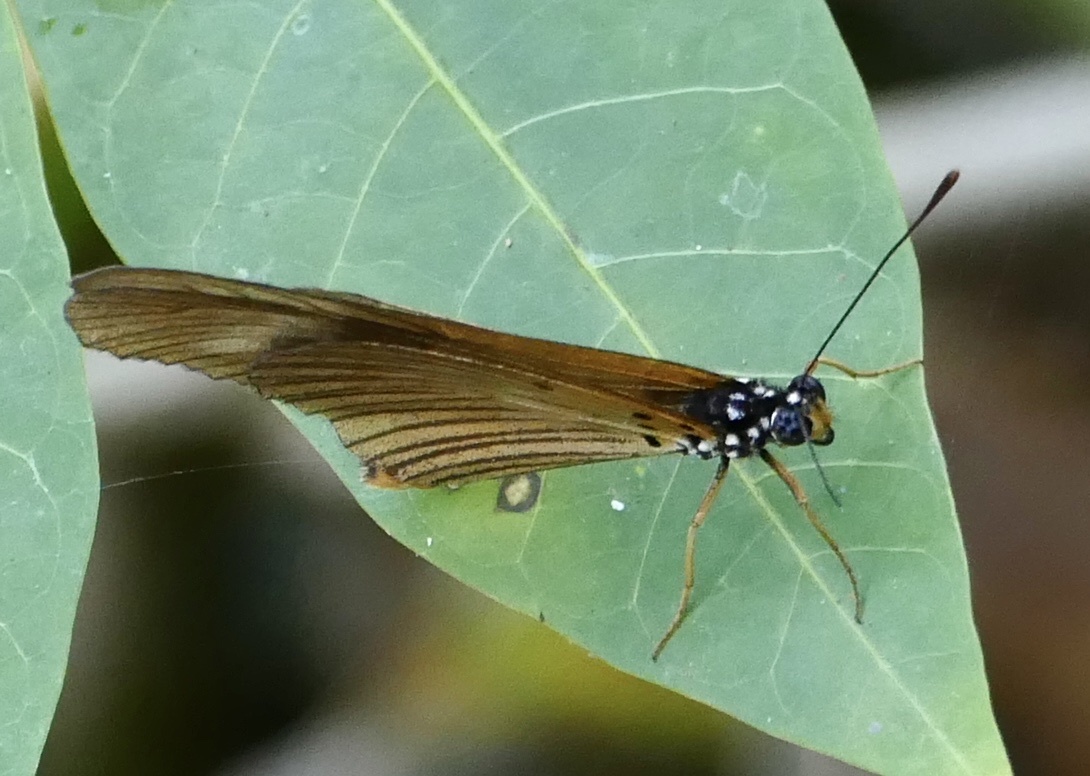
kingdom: Animalia
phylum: Arthropoda
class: Insecta
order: Lepidoptera
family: Nymphalidae
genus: Acraea
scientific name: Acraea Telchinia lycoa
